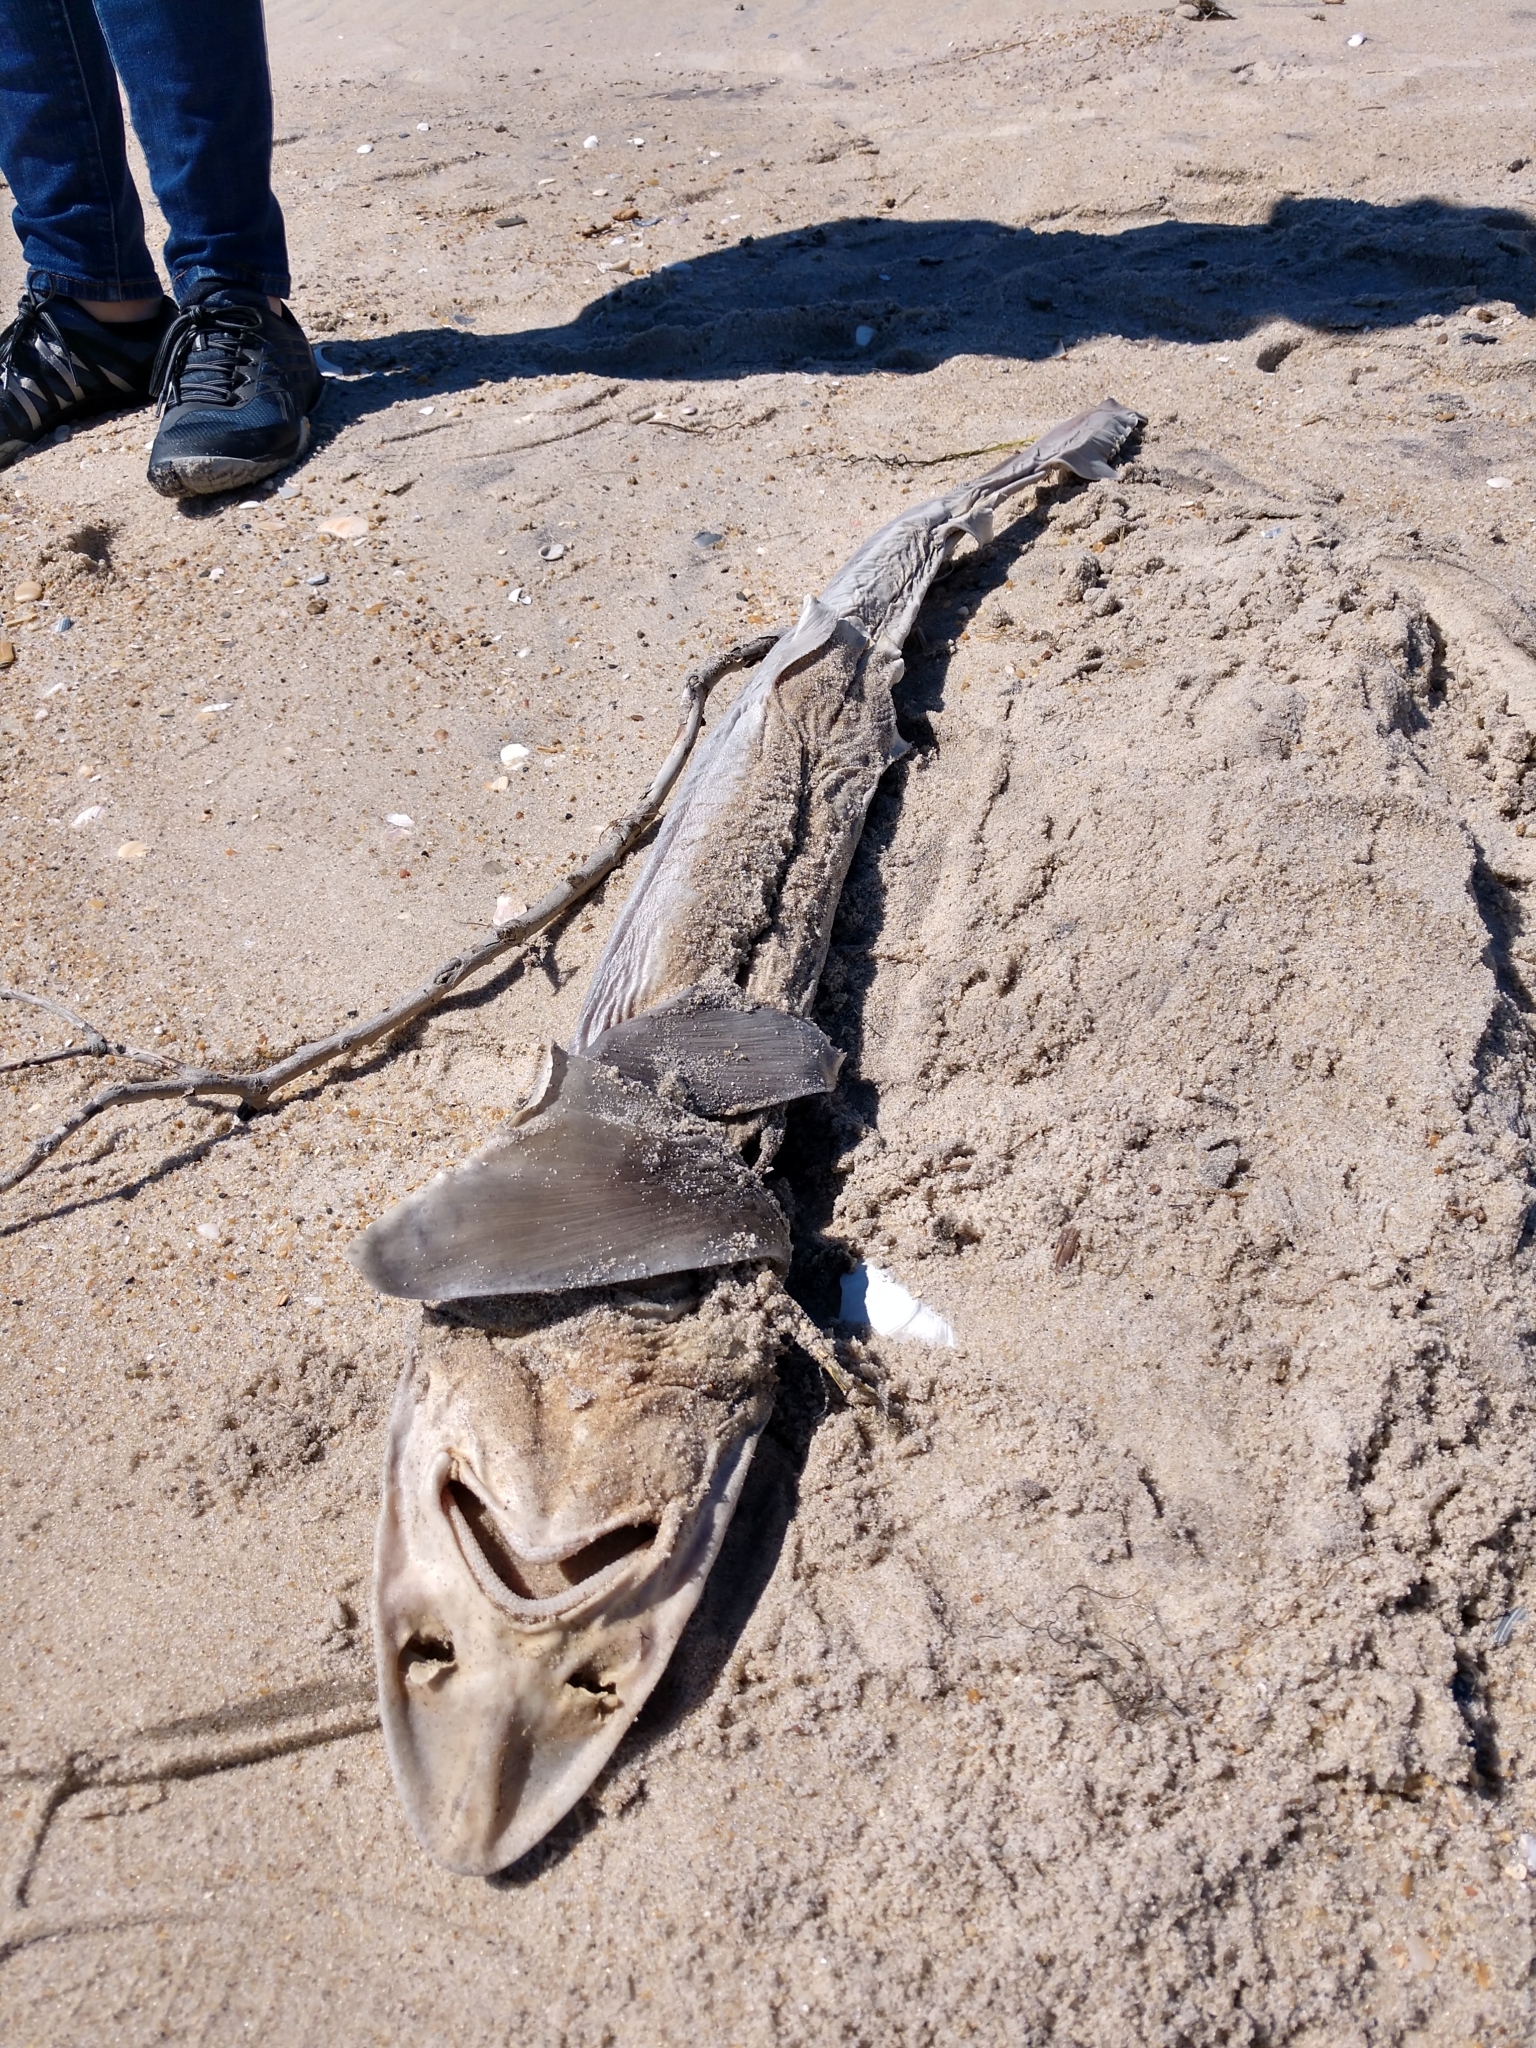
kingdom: Animalia
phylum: Chordata
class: Elasmobranchii
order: Carcharhiniformes
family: Triakidae
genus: Mustelus
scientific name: Mustelus canis
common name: Smooth dogfish
